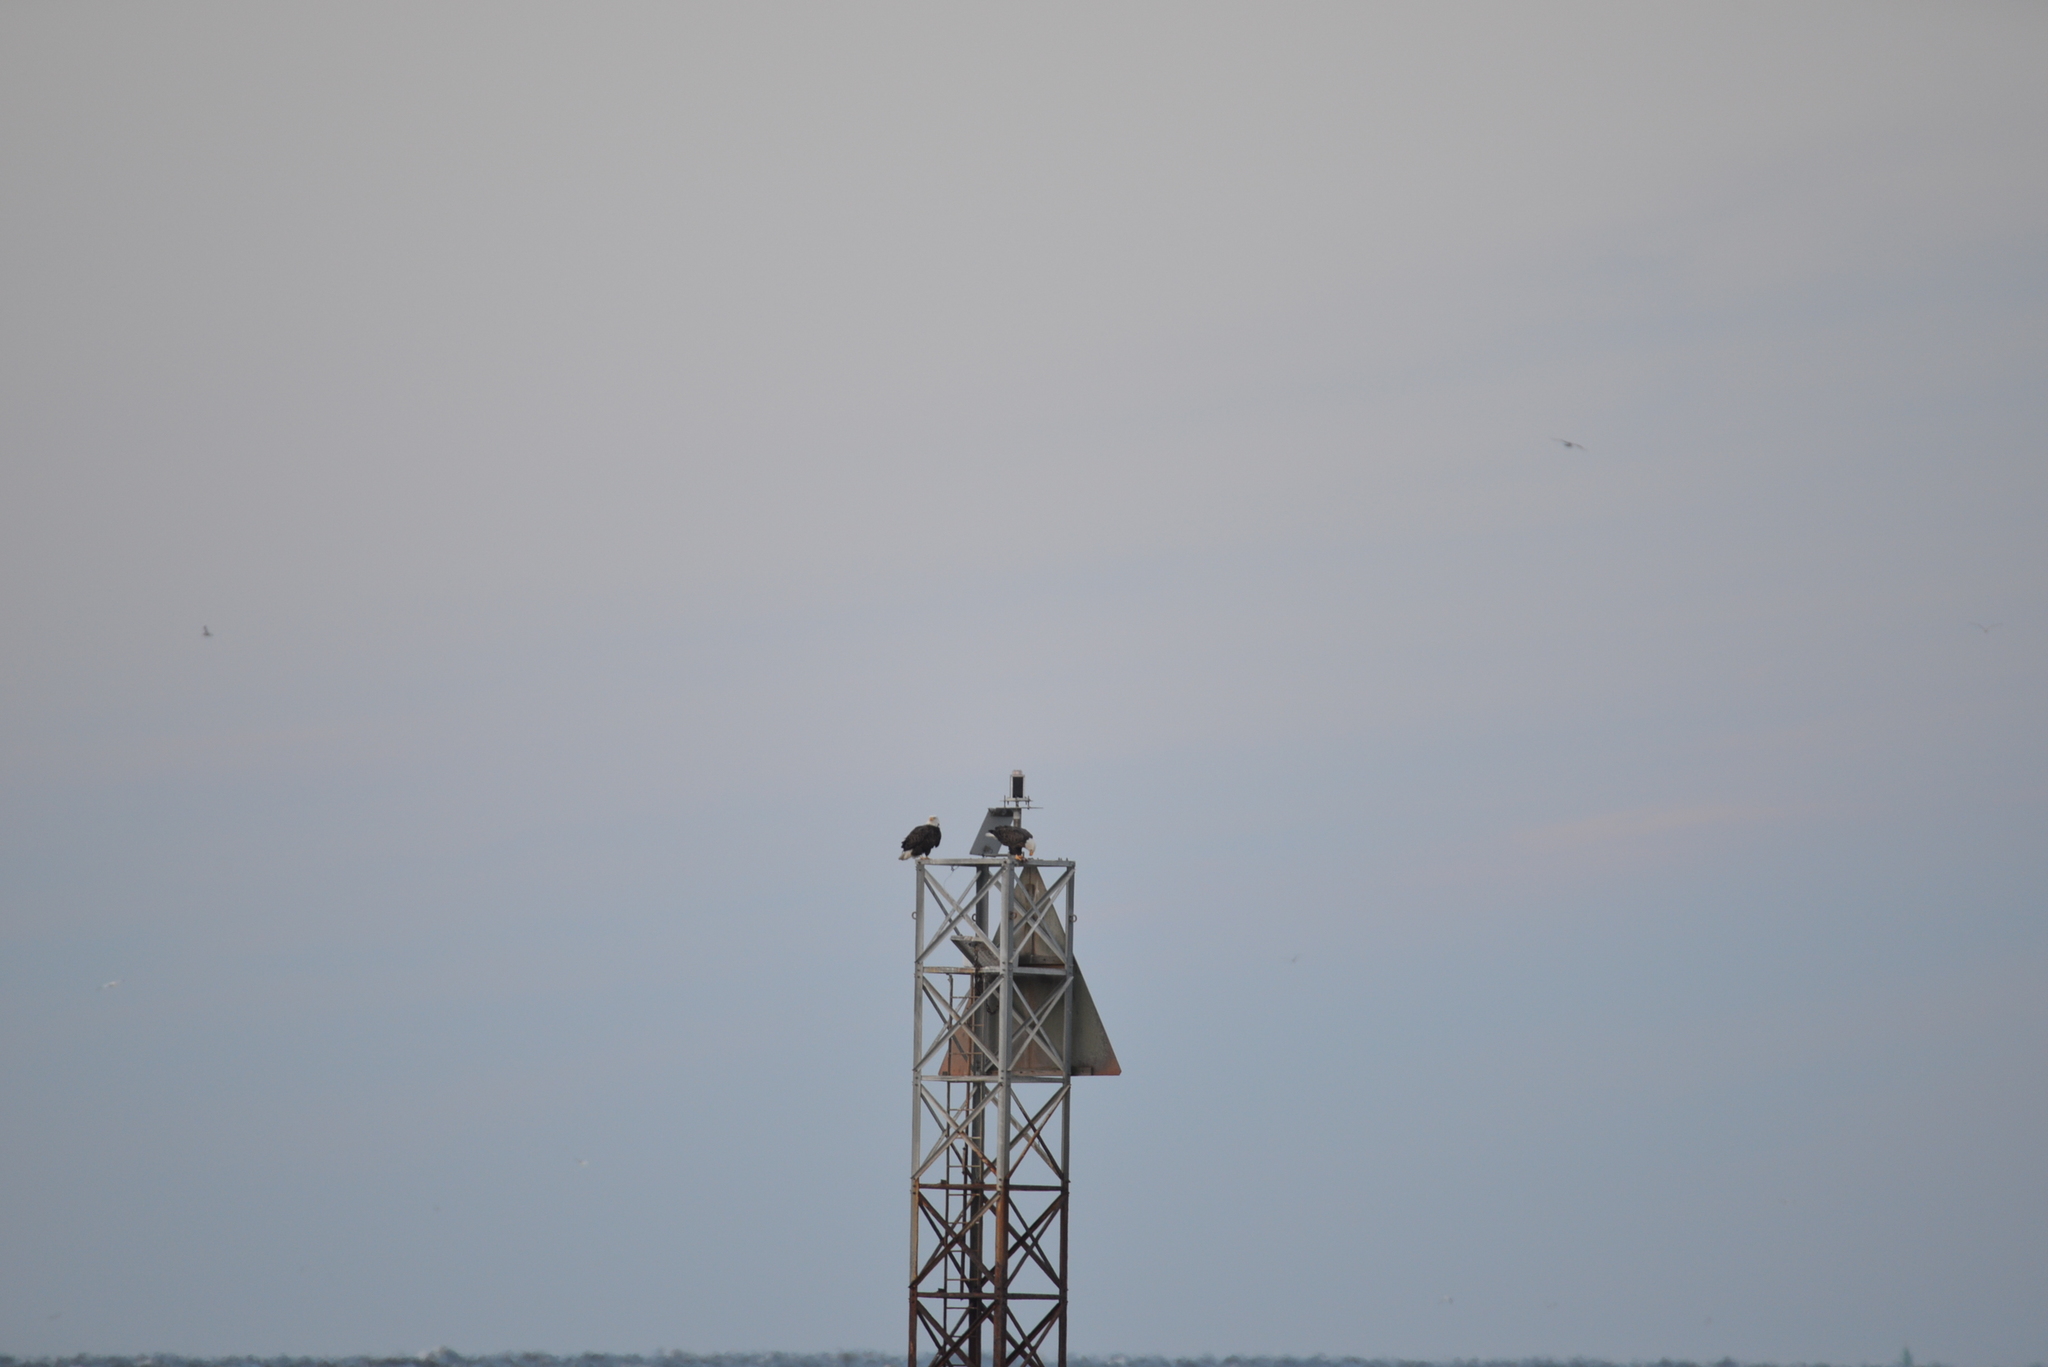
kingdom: Animalia
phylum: Chordata
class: Aves
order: Accipitriformes
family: Accipitridae
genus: Haliaeetus
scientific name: Haliaeetus leucocephalus
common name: Bald eagle
